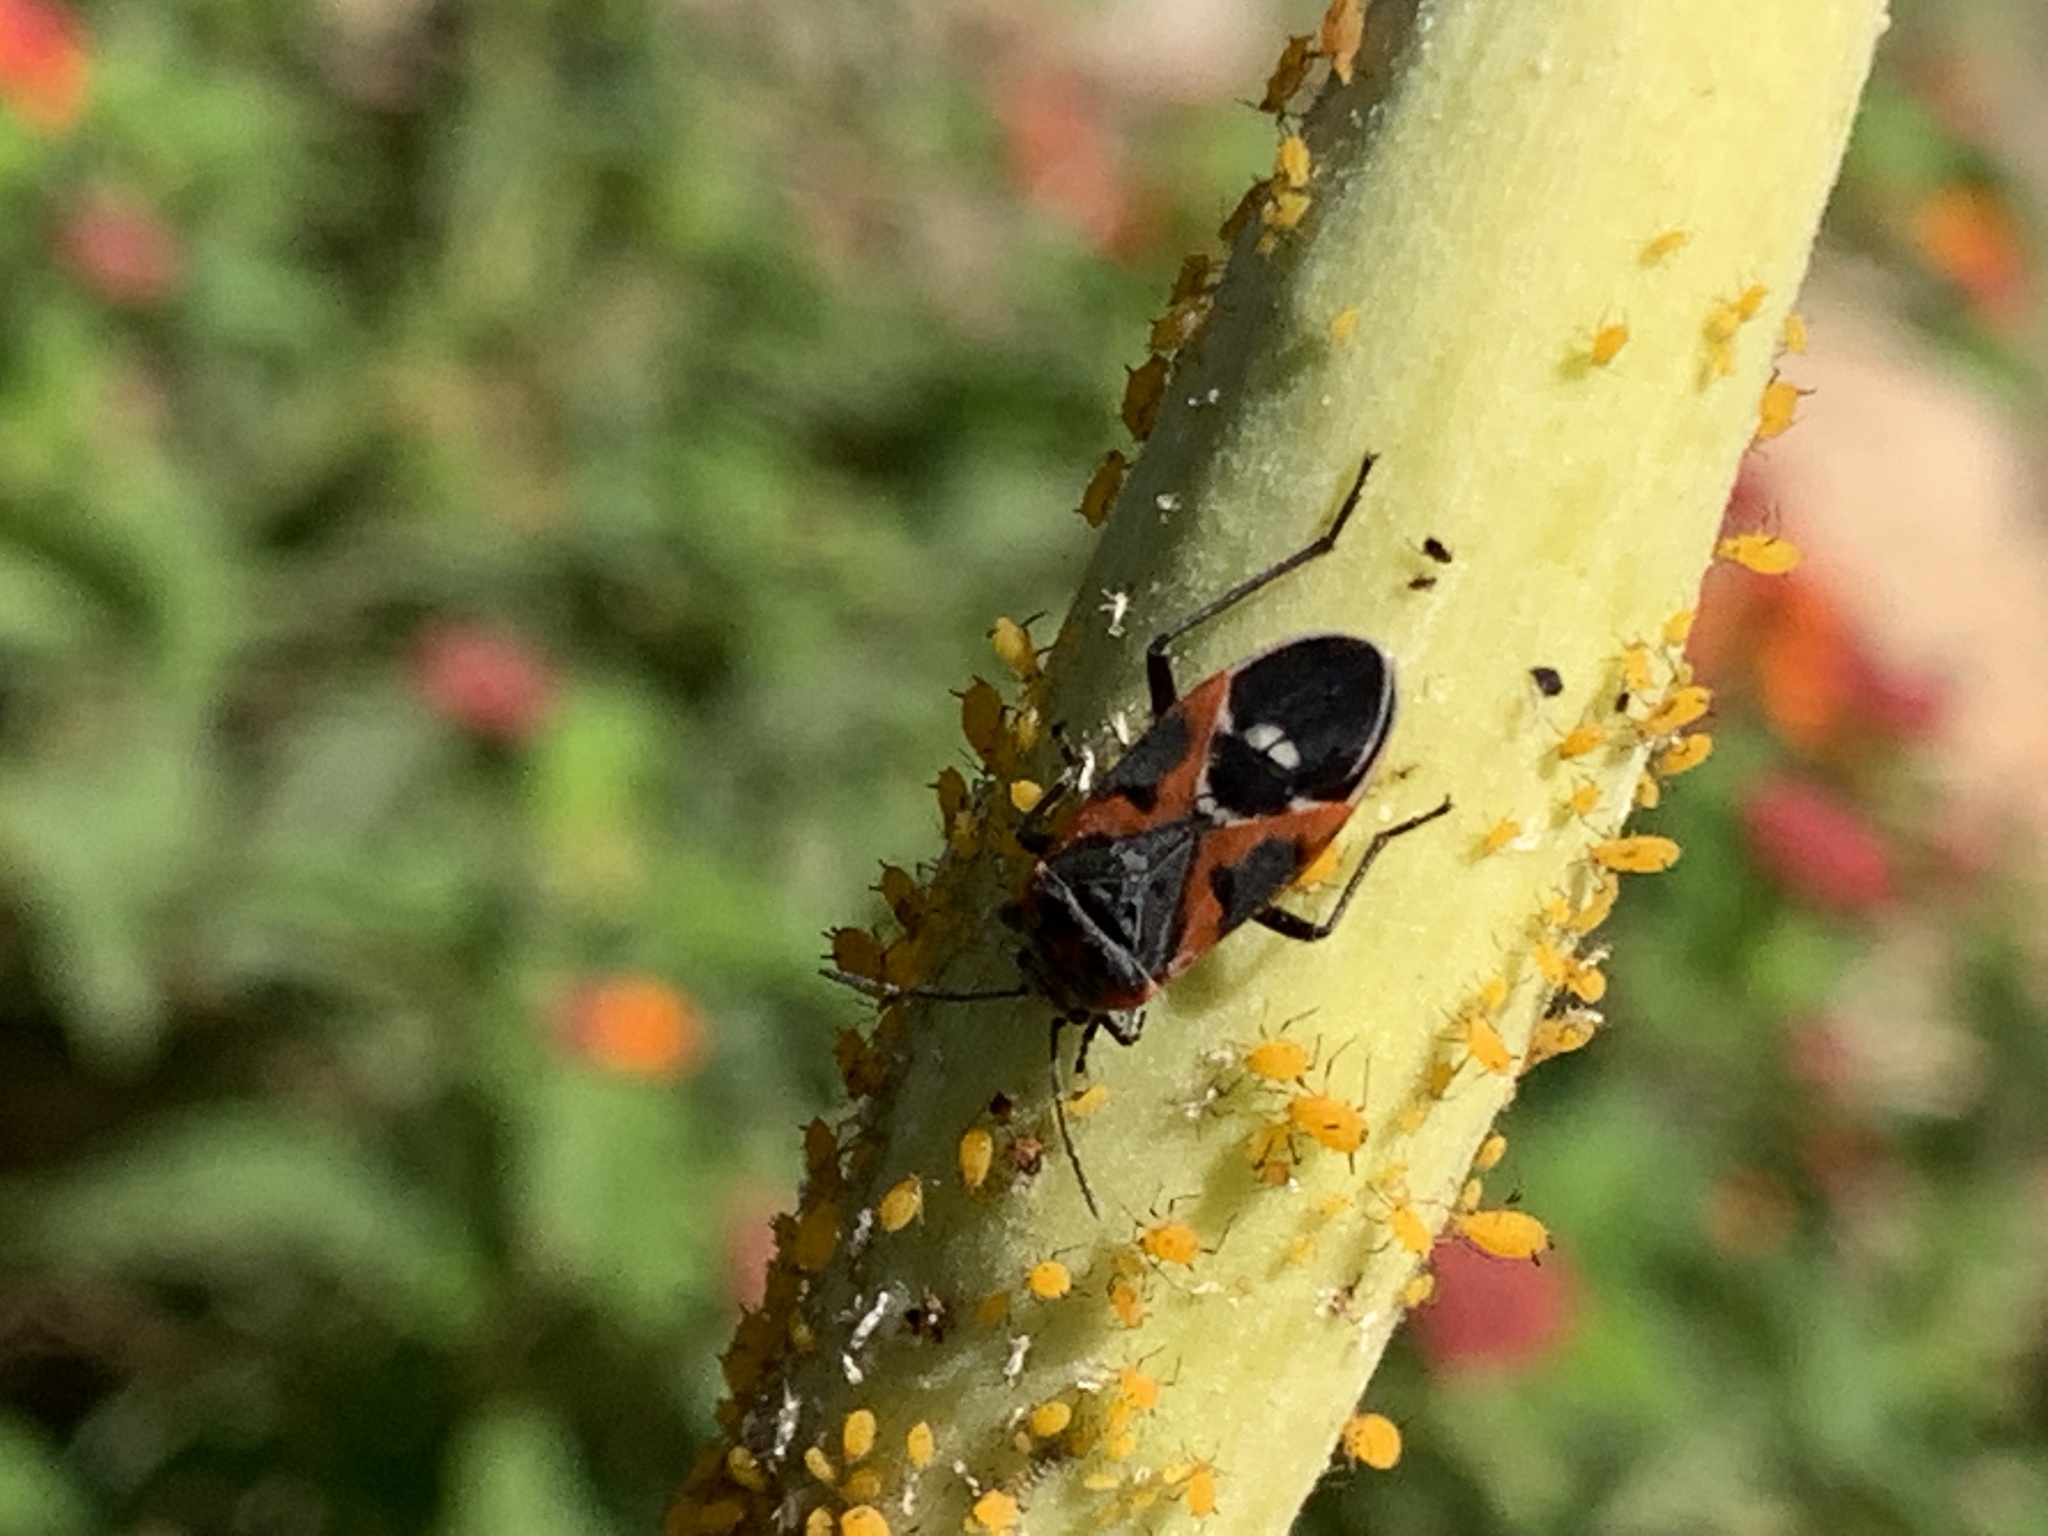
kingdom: Animalia
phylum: Arthropoda
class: Insecta
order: Hemiptera
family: Lygaeidae
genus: Lygaeus
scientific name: Lygaeus kalmii
